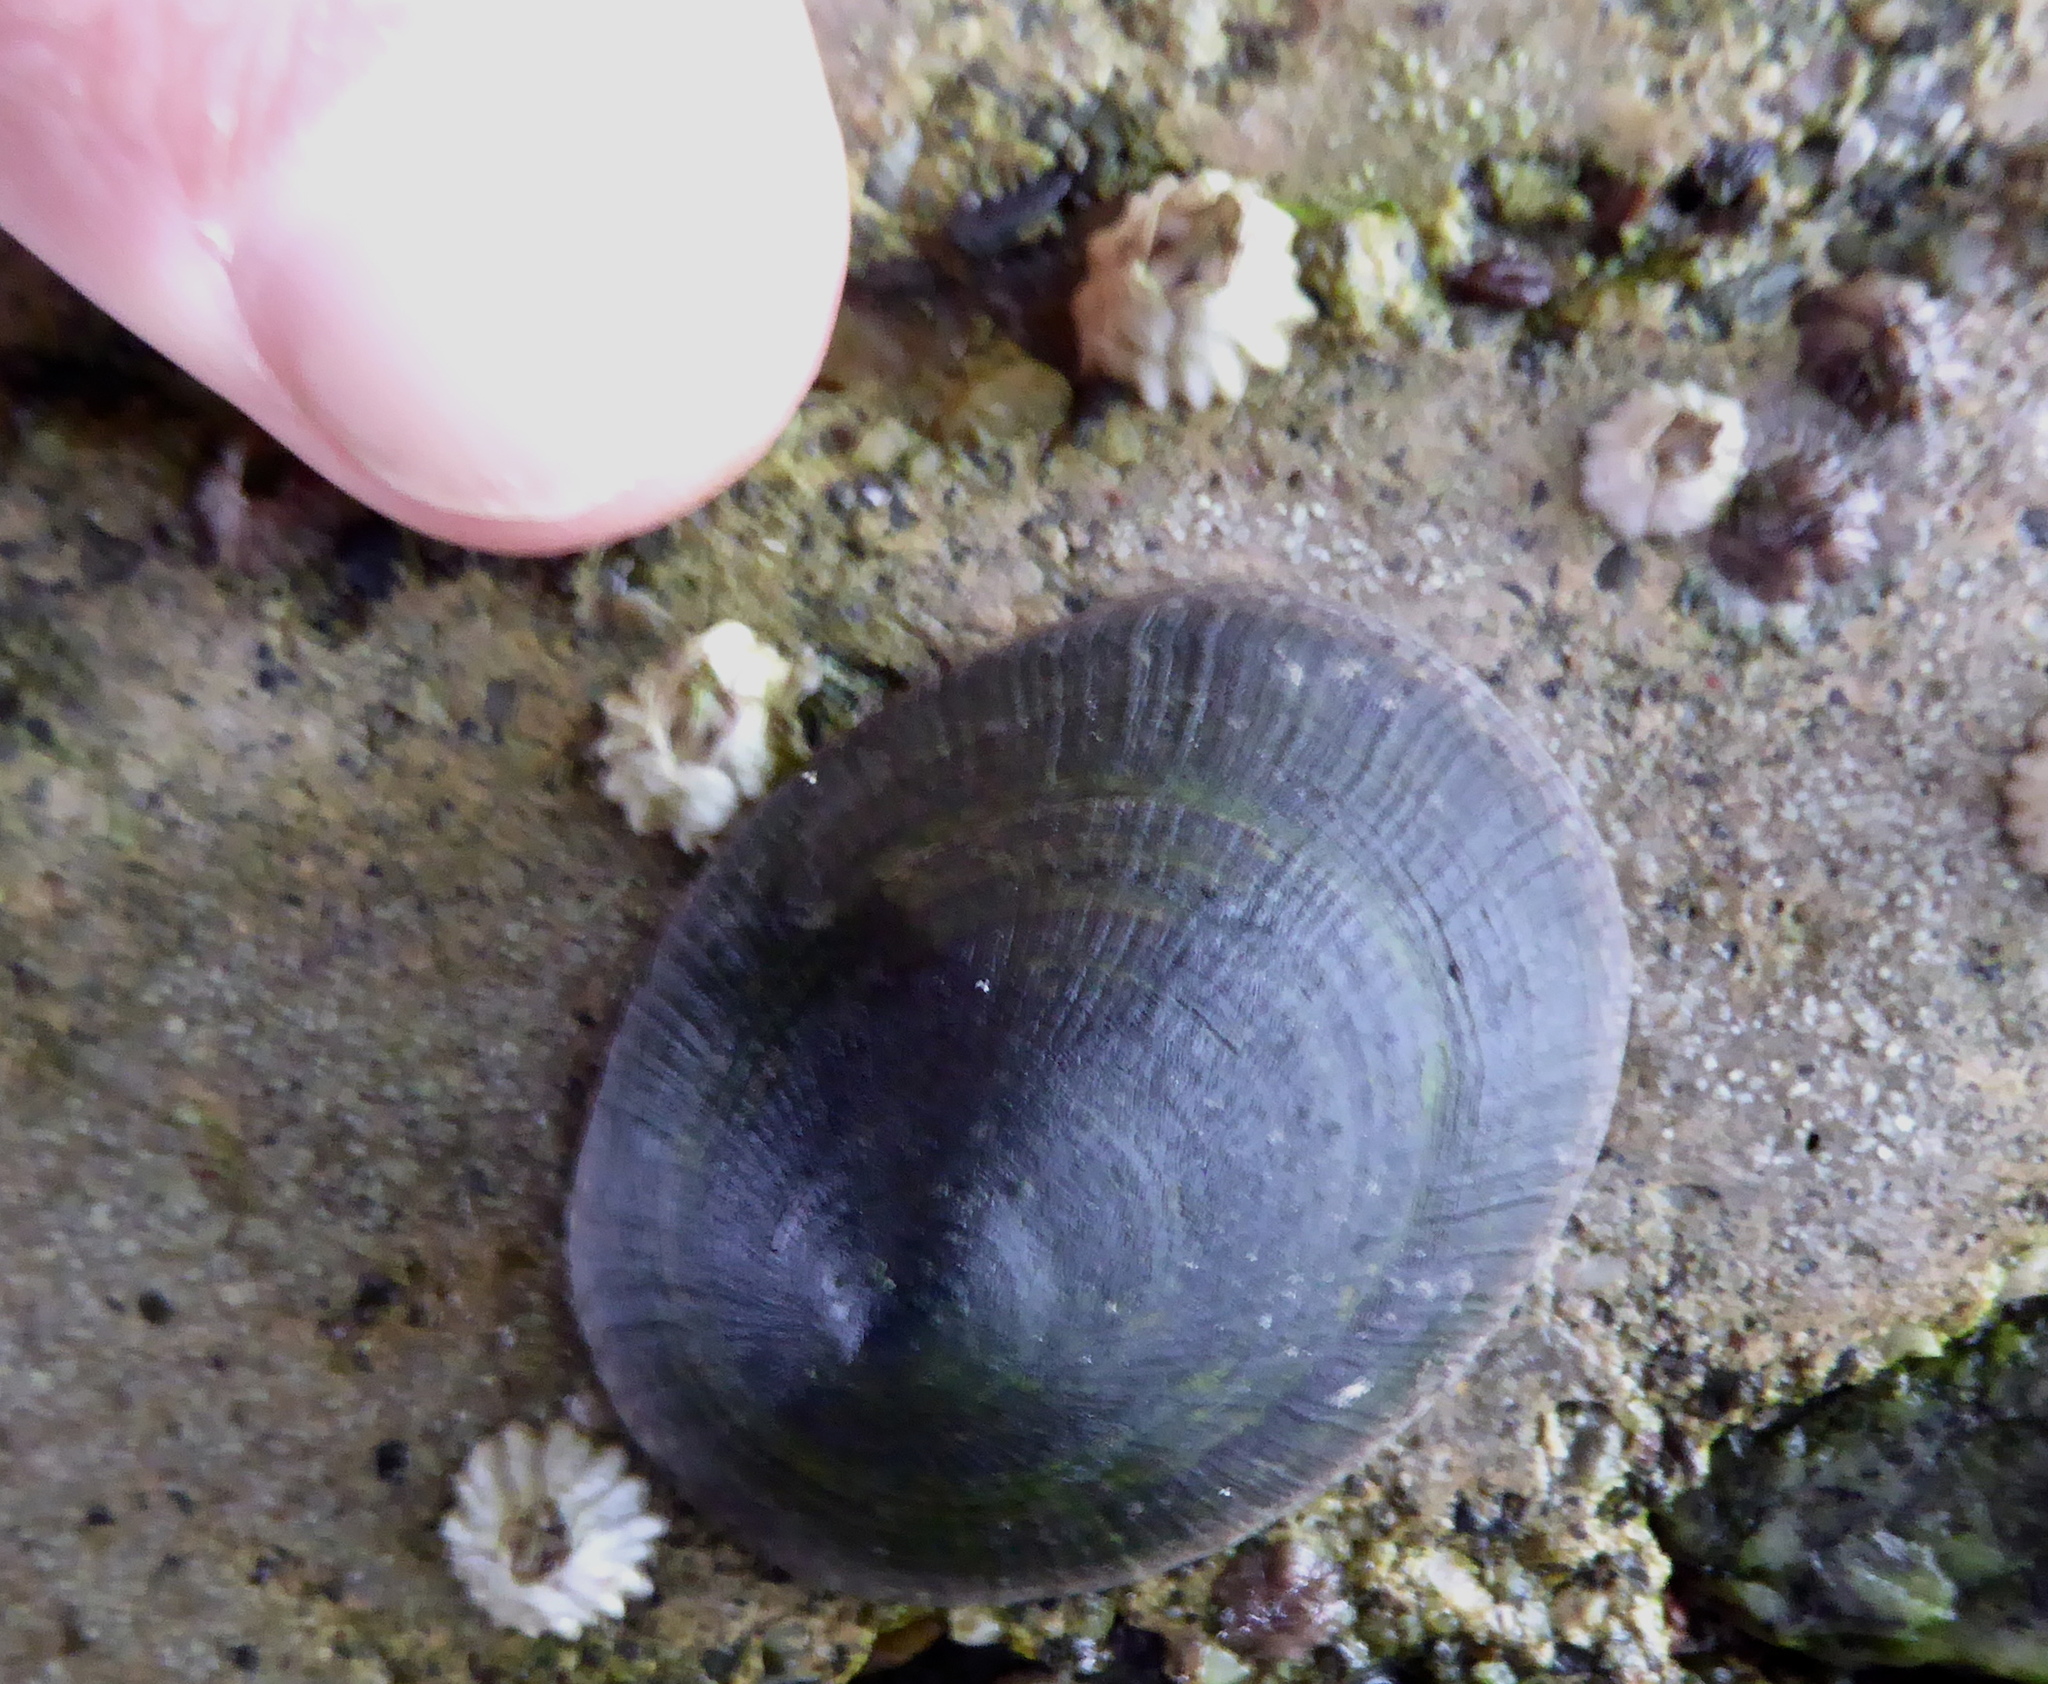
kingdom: Animalia
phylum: Mollusca
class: Gastropoda
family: Lottiidae
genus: Lottia
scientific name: Lottia persona
